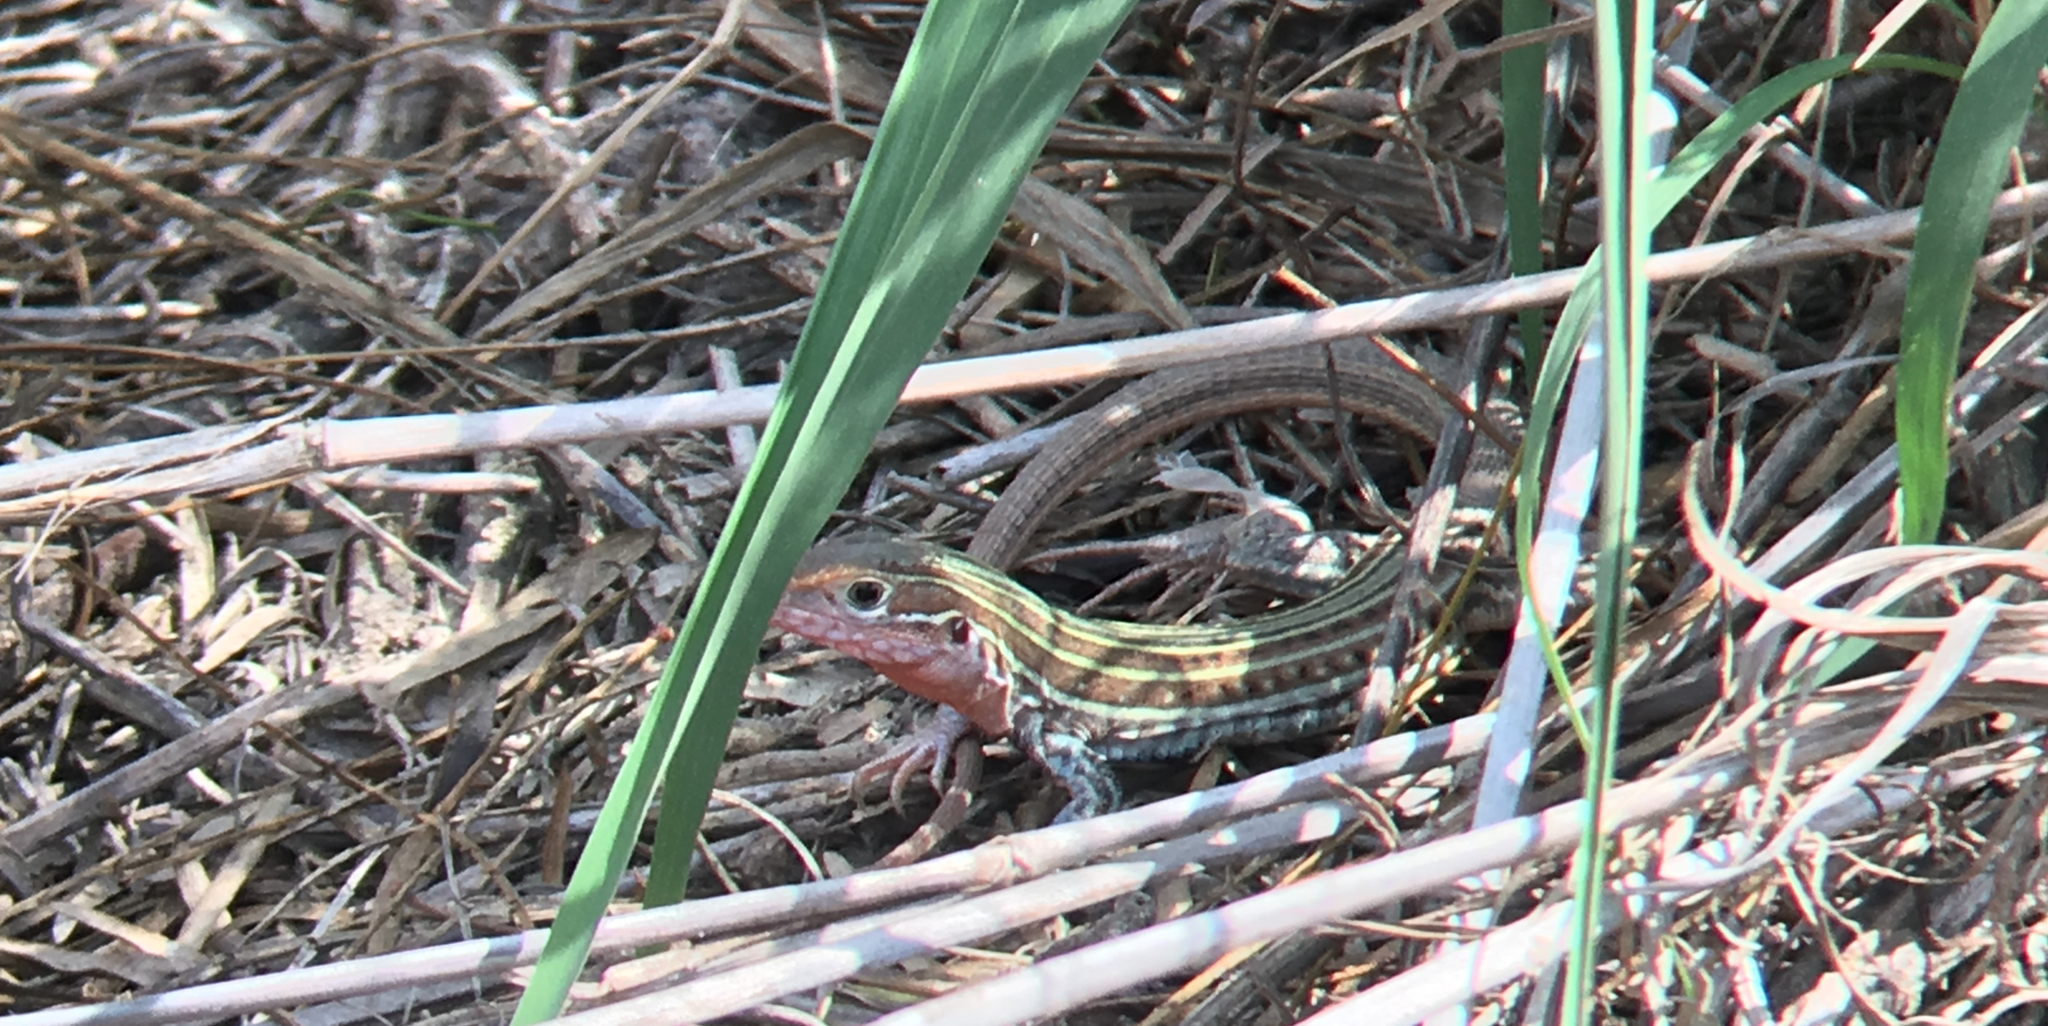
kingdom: Animalia
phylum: Chordata
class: Squamata
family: Teiidae
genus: Aspidoscelis
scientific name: Aspidoscelis gularis
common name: Eastern spotted whiptail
